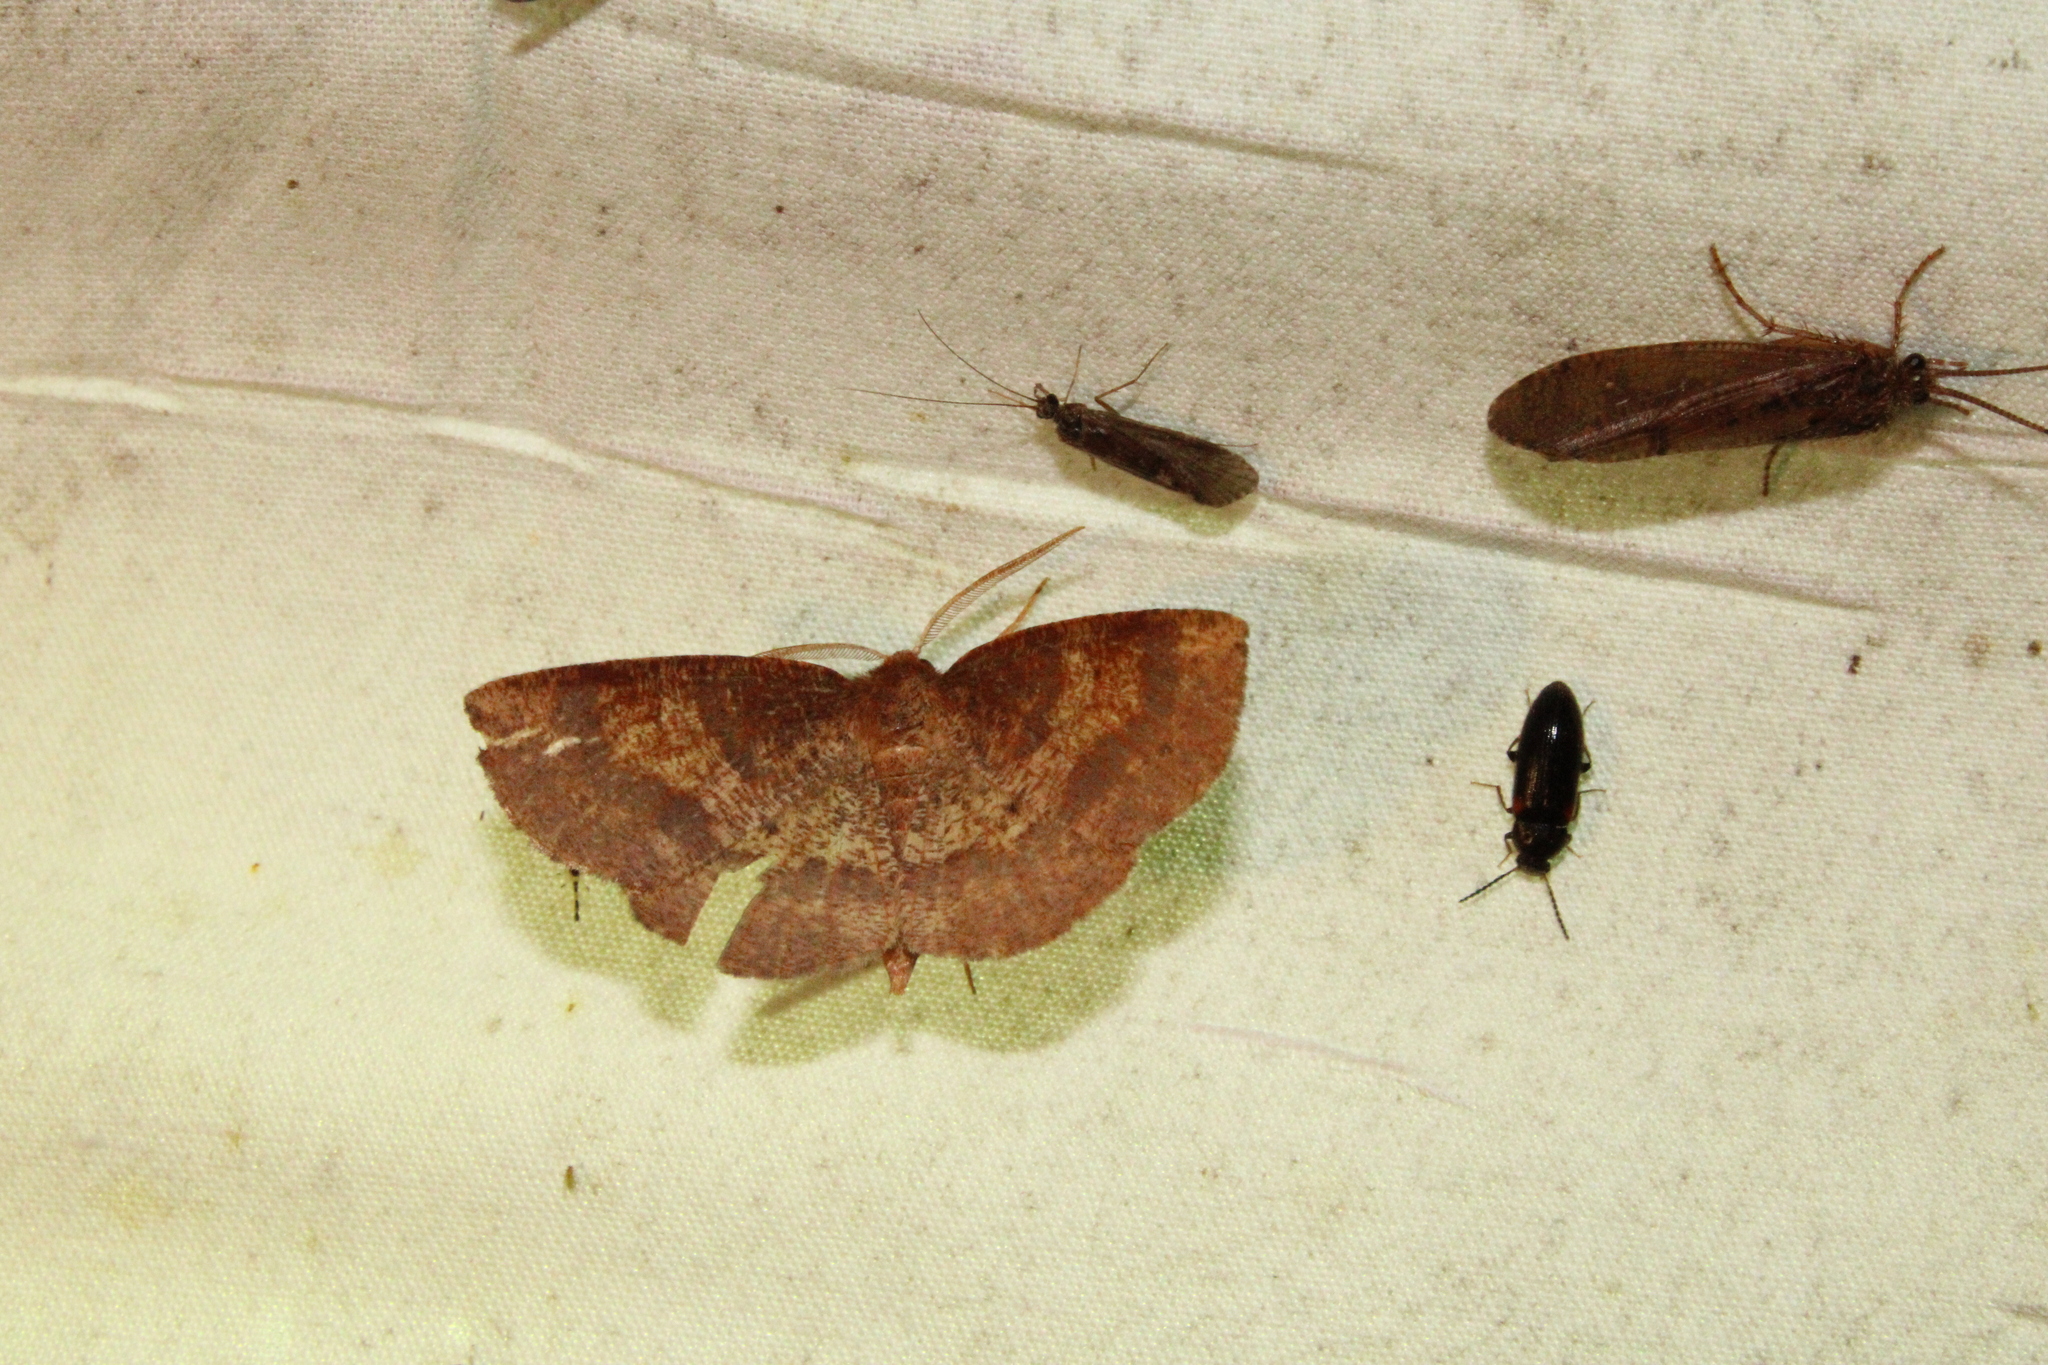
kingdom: Animalia
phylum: Arthropoda
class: Insecta
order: Lepidoptera
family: Geometridae
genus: Metarranthis
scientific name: Metarranthis angularia
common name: Angled metarranthis moth
